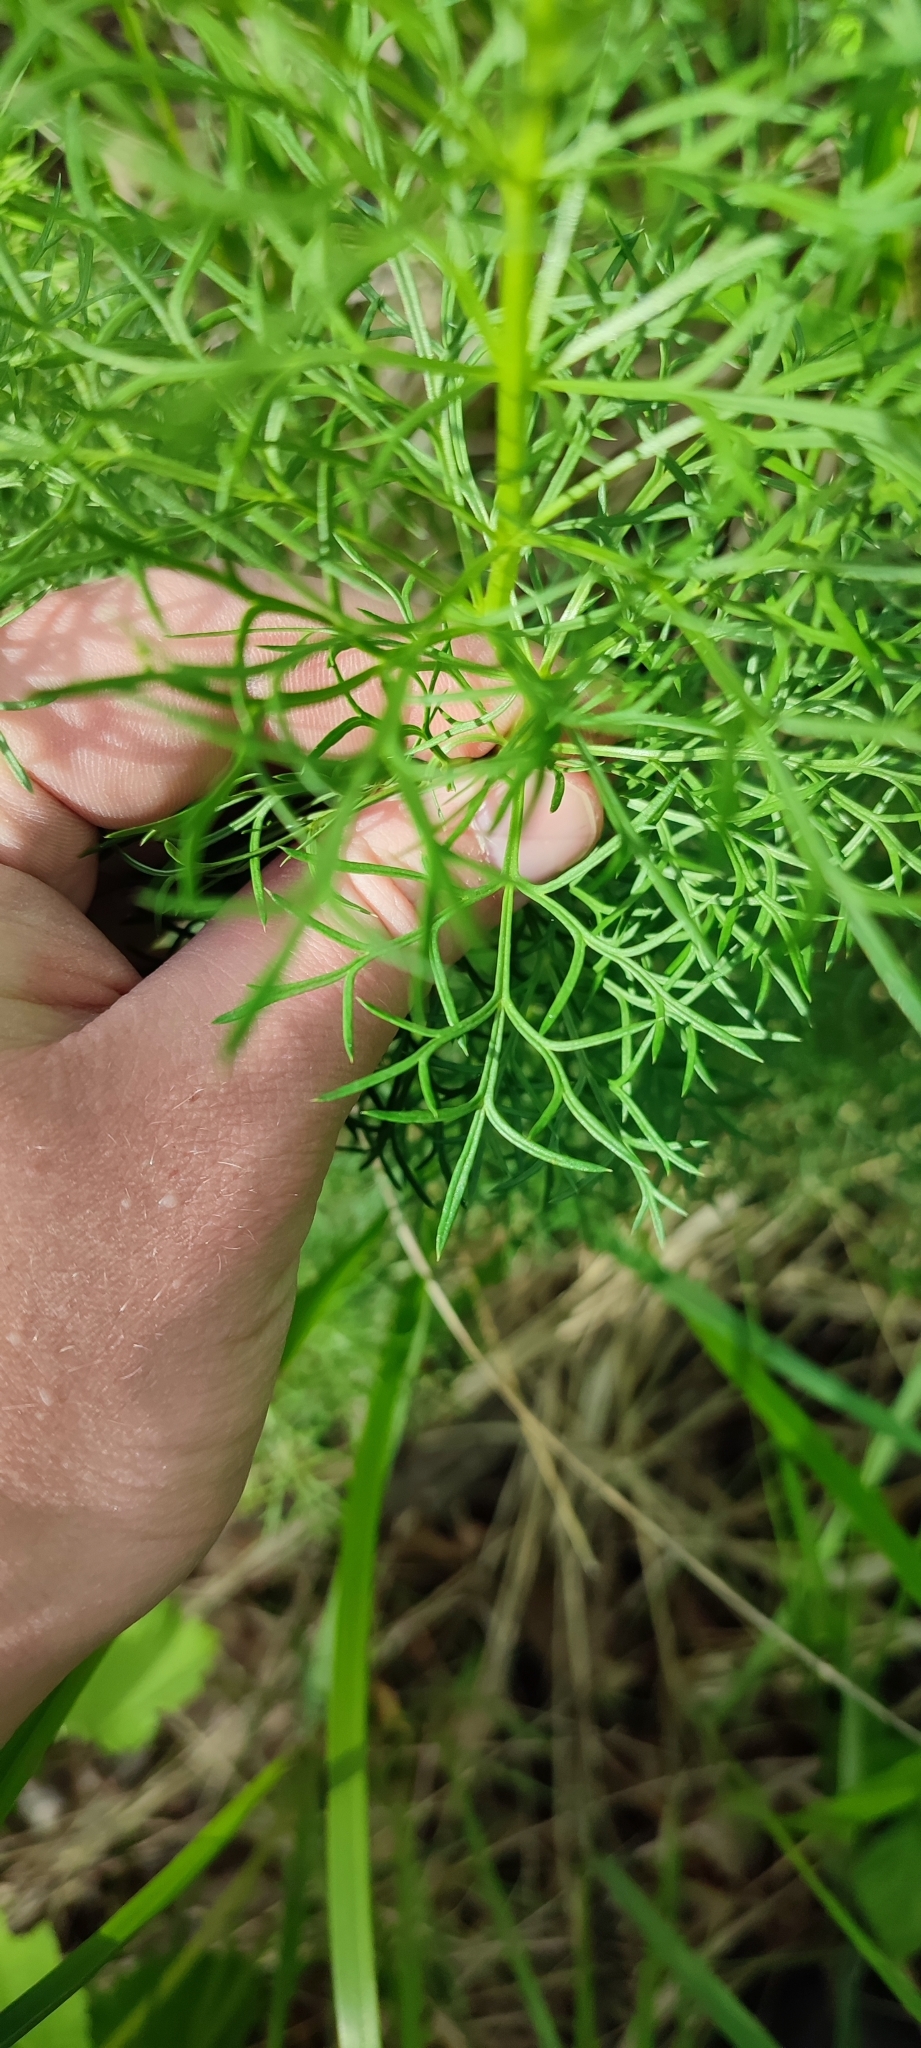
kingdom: Plantae
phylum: Tracheophyta
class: Magnoliopsida
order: Ranunculales
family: Ranunculaceae
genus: Adonis
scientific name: Adonis vernalis
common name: Yellow pheasants-eye
